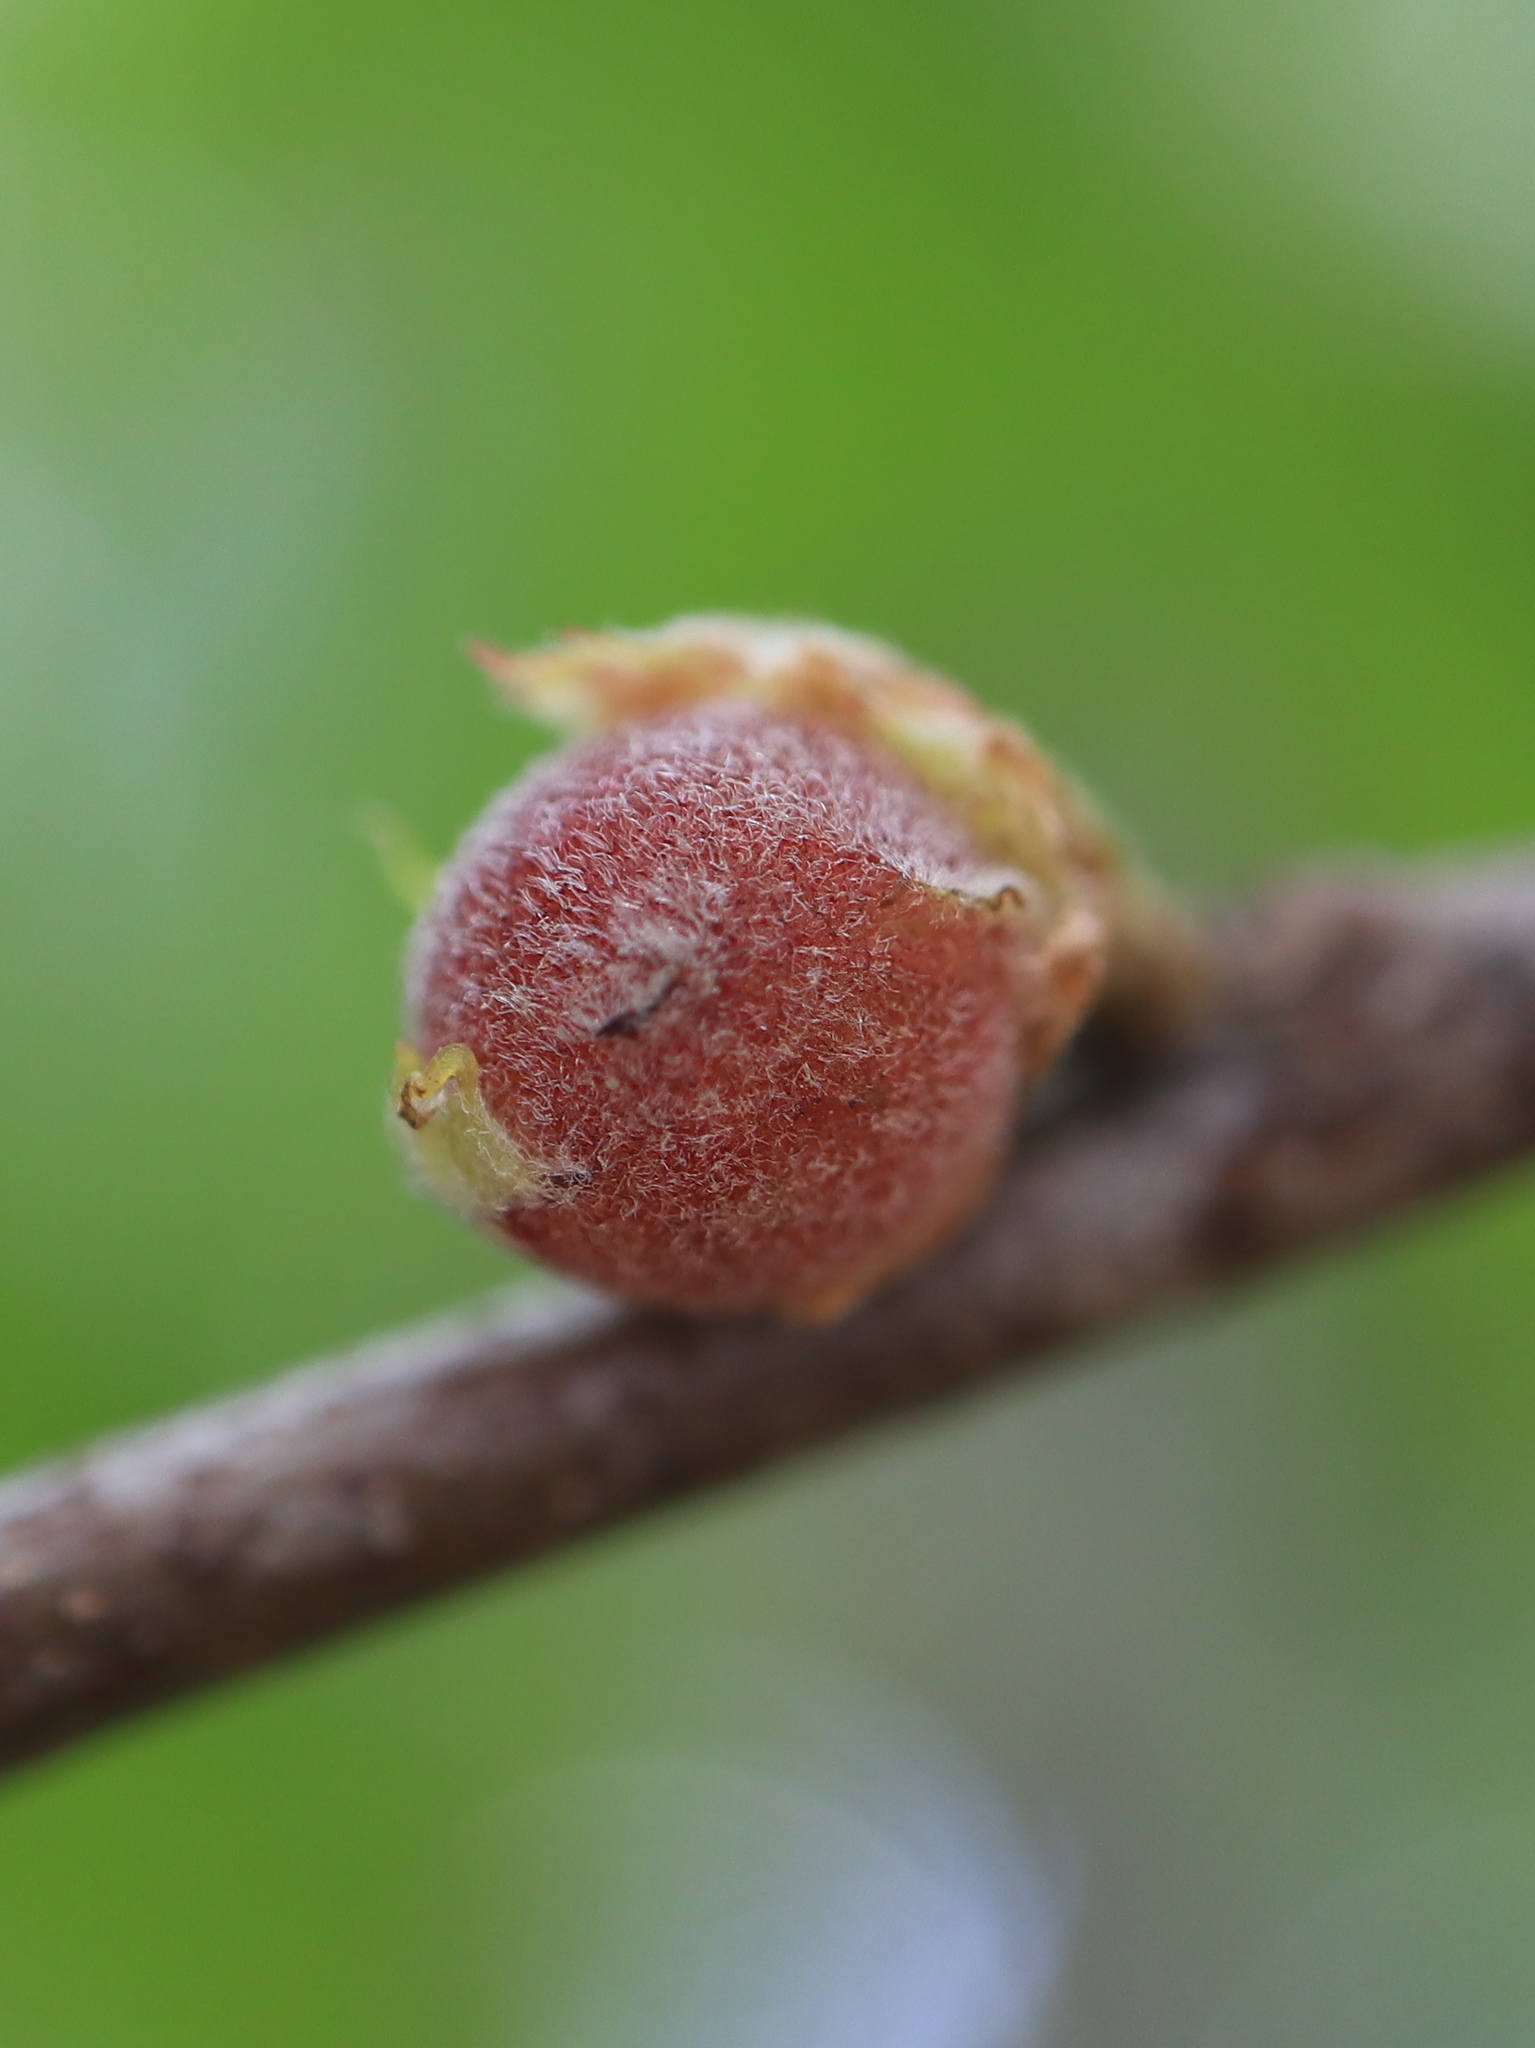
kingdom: Animalia
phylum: Arthropoda
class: Insecta
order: Hymenoptera
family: Cynipidae
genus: Dryocosmus
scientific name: Dryocosmus quercuspalustris
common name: Succulent oak gall wasp
